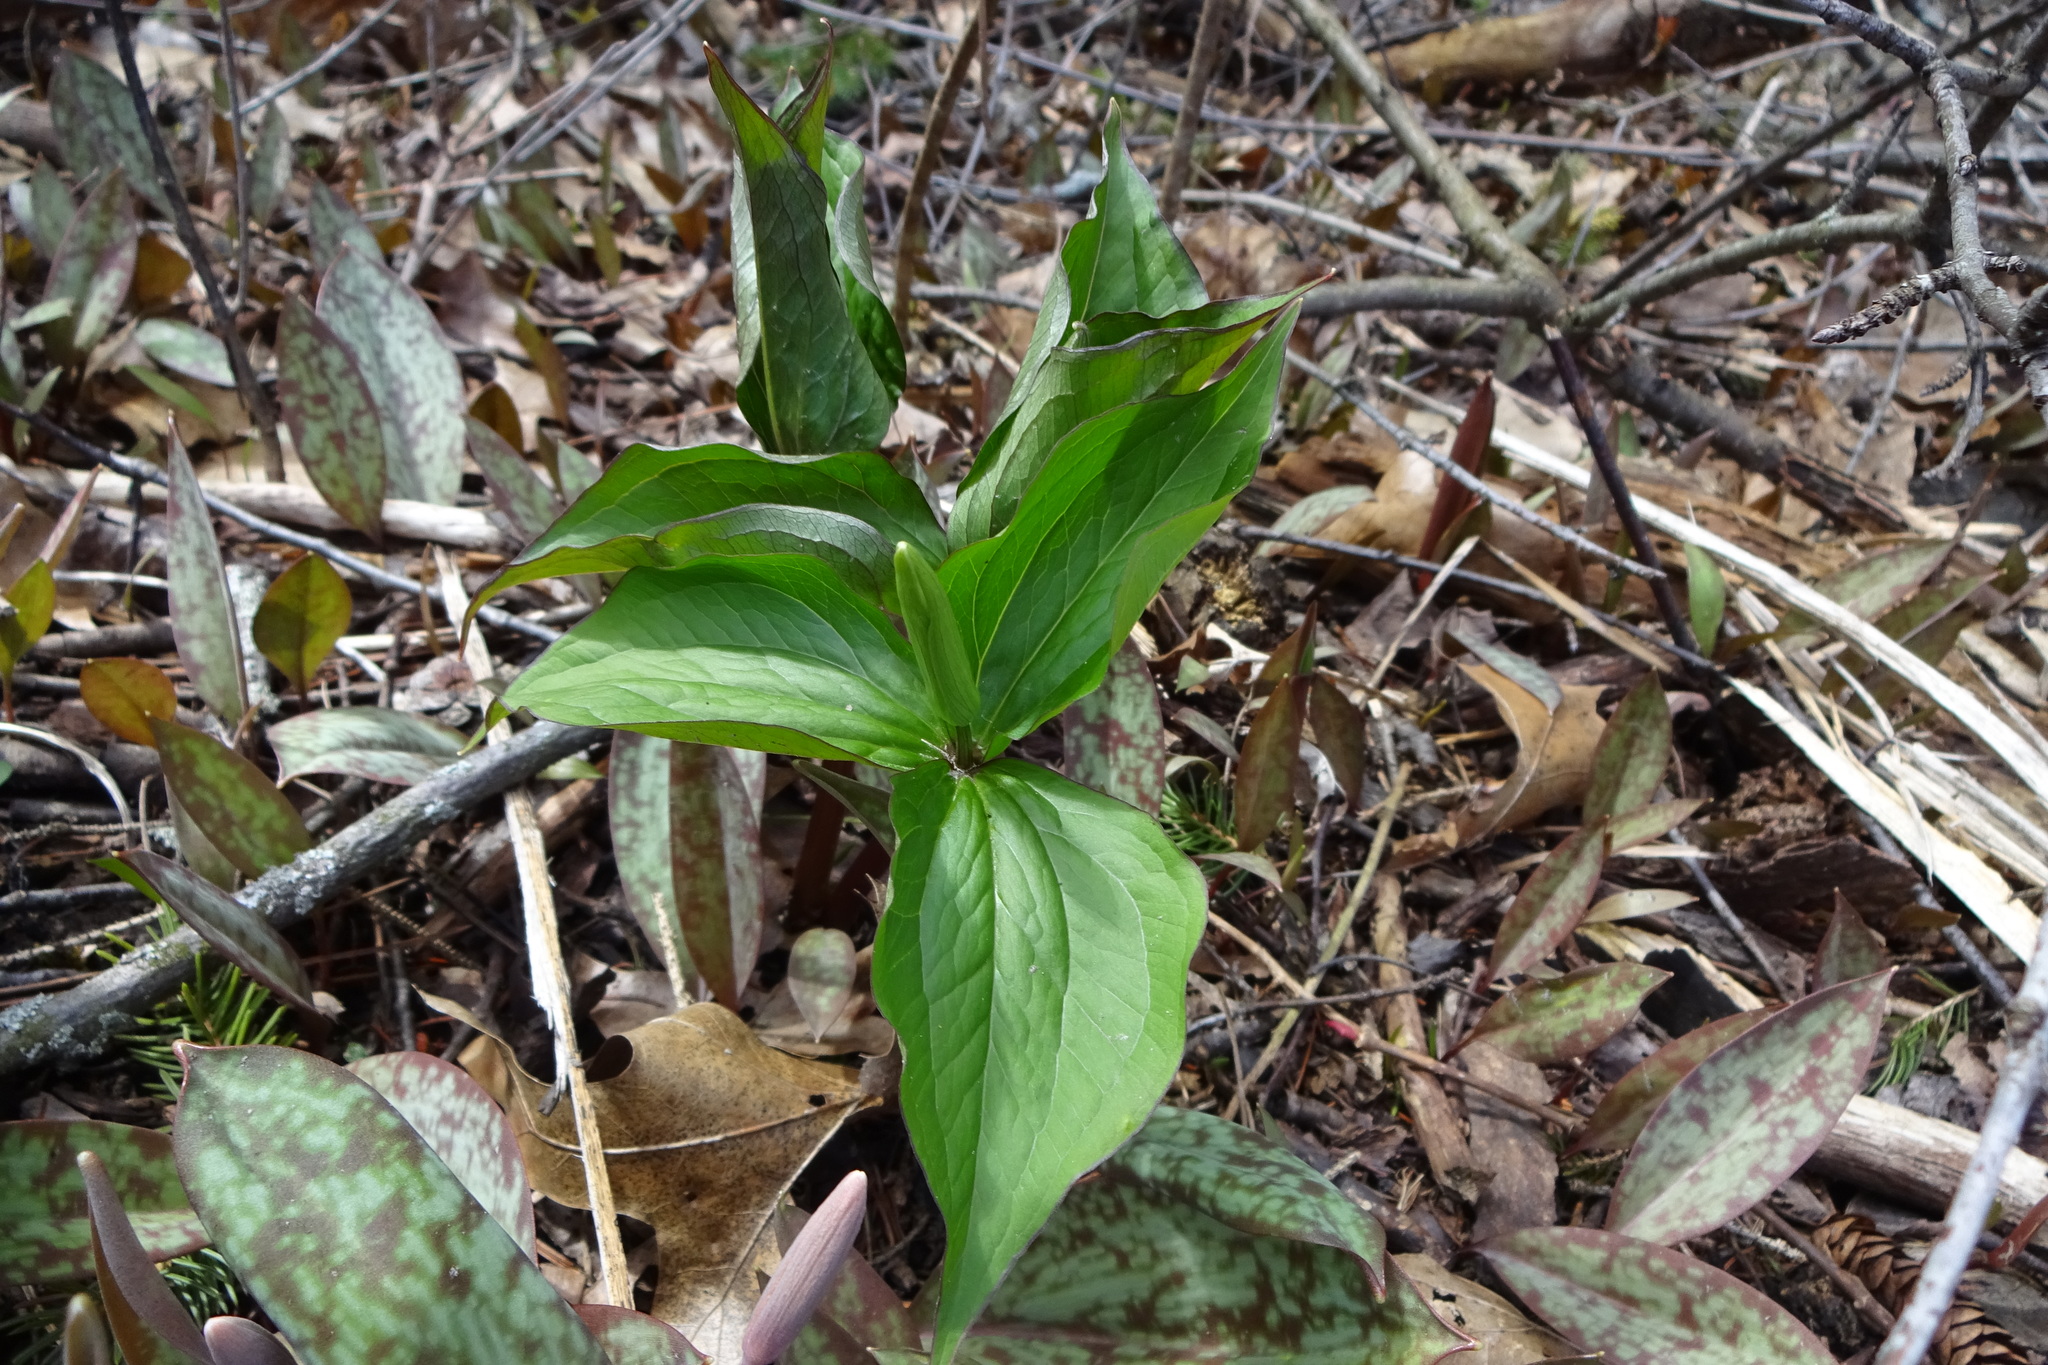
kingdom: Plantae
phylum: Tracheophyta
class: Liliopsida
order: Liliales
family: Melanthiaceae
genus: Trillium
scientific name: Trillium grandiflorum
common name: Great white trillium
